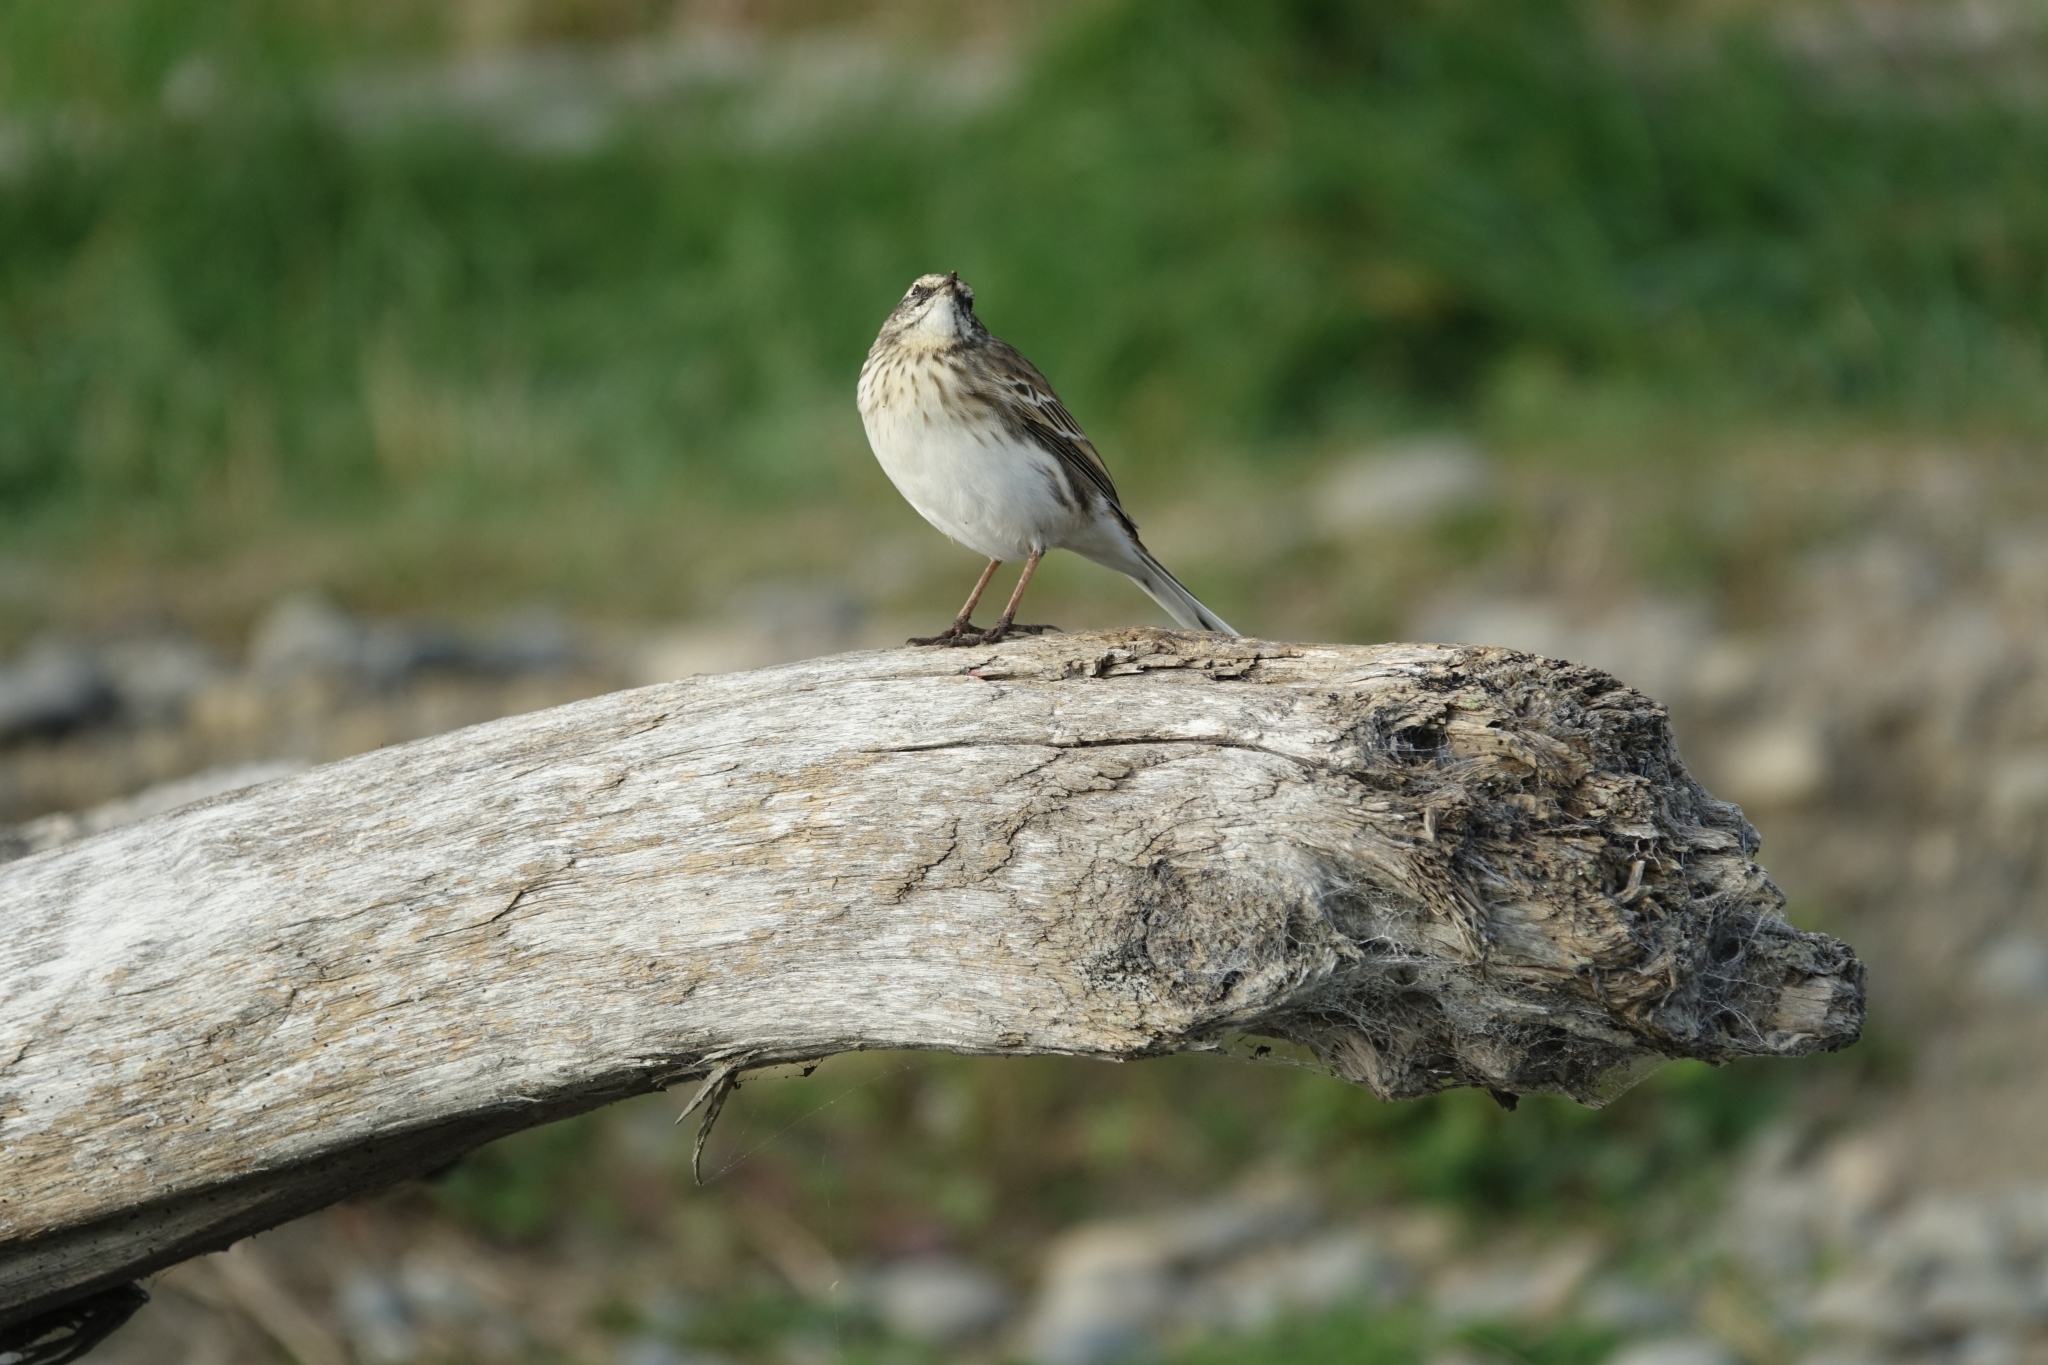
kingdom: Animalia
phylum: Chordata
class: Aves
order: Passeriformes
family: Motacillidae
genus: Anthus
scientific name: Anthus novaeseelandiae
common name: New zealand pipit
